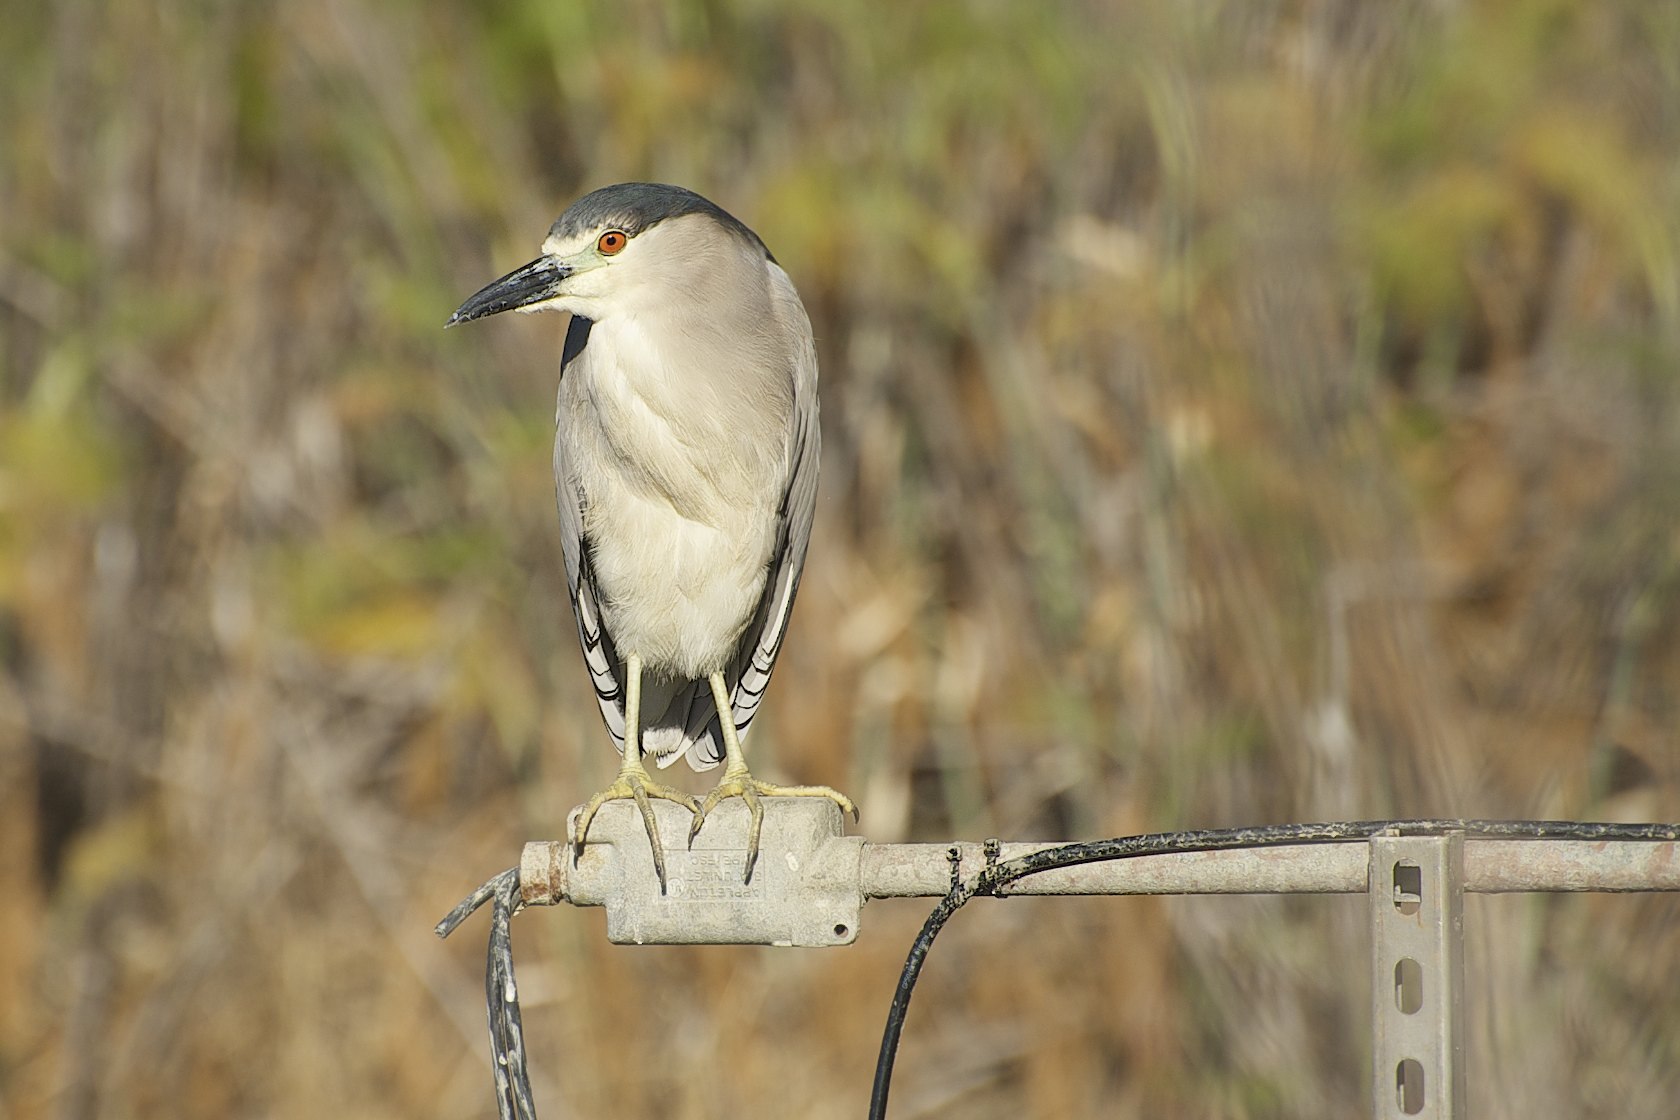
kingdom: Animalia
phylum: Chordata
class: Aves
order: Pelecaniformes
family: Ardeidae
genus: Nycticorax
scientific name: Nycticorax nycticorax
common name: Black-crowned night heron
